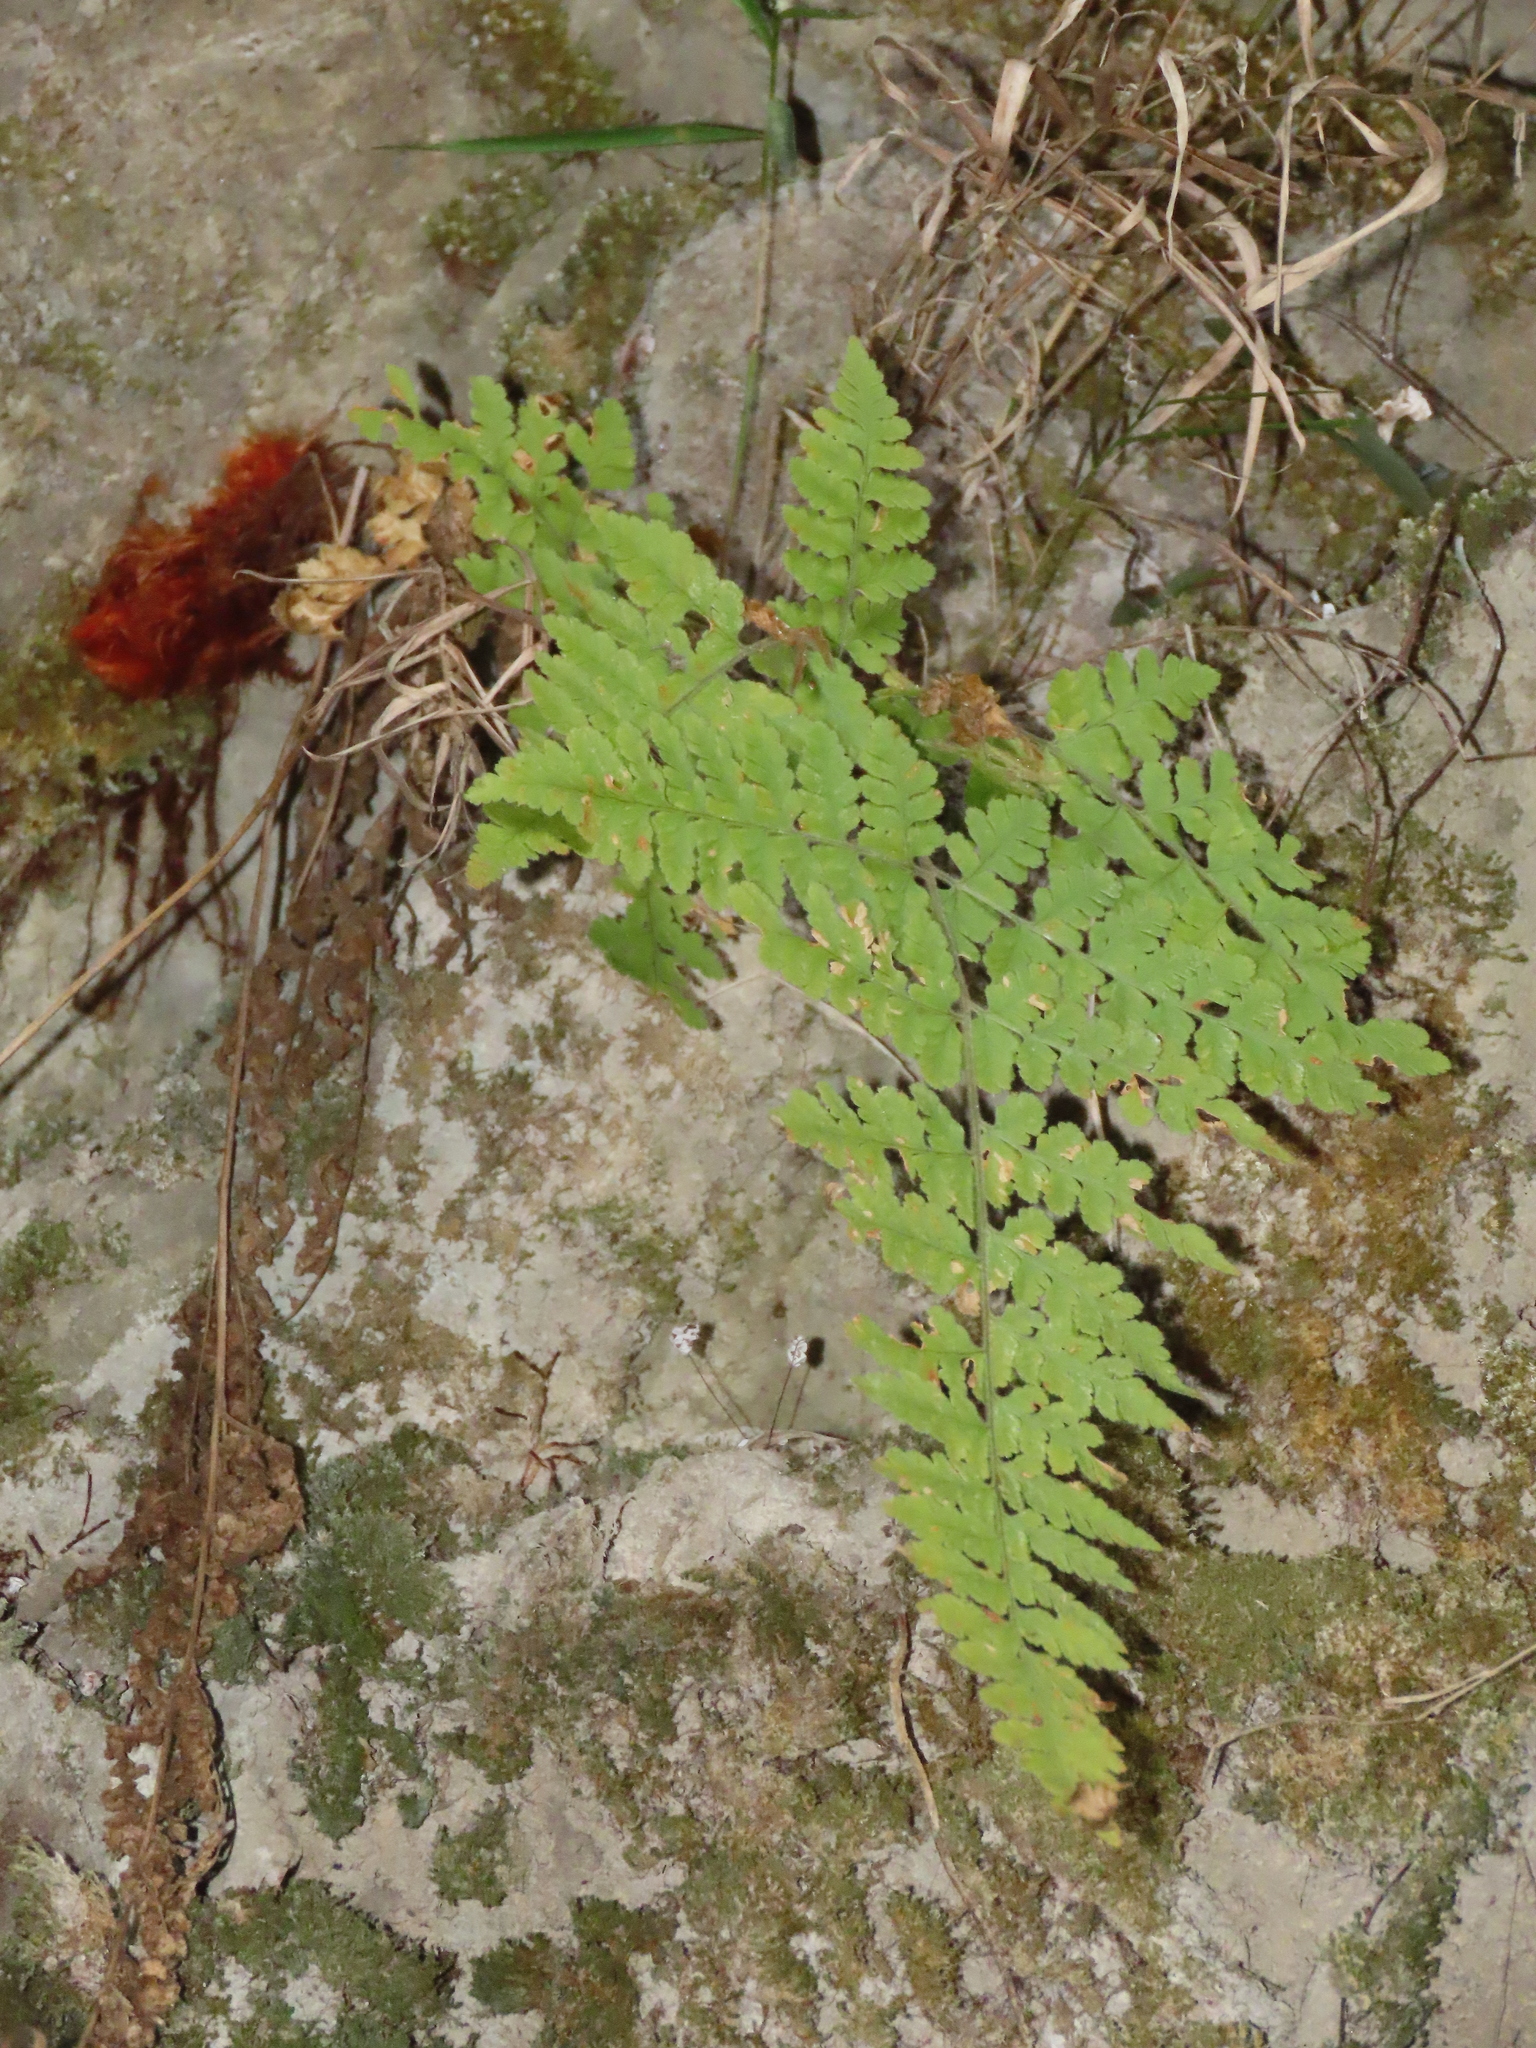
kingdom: Plantae
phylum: Tracheophyta
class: Polypodiopsida
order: Polypodiales
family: Hypodematiaceae
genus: Hypodematium
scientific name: Hypodematium shingii
